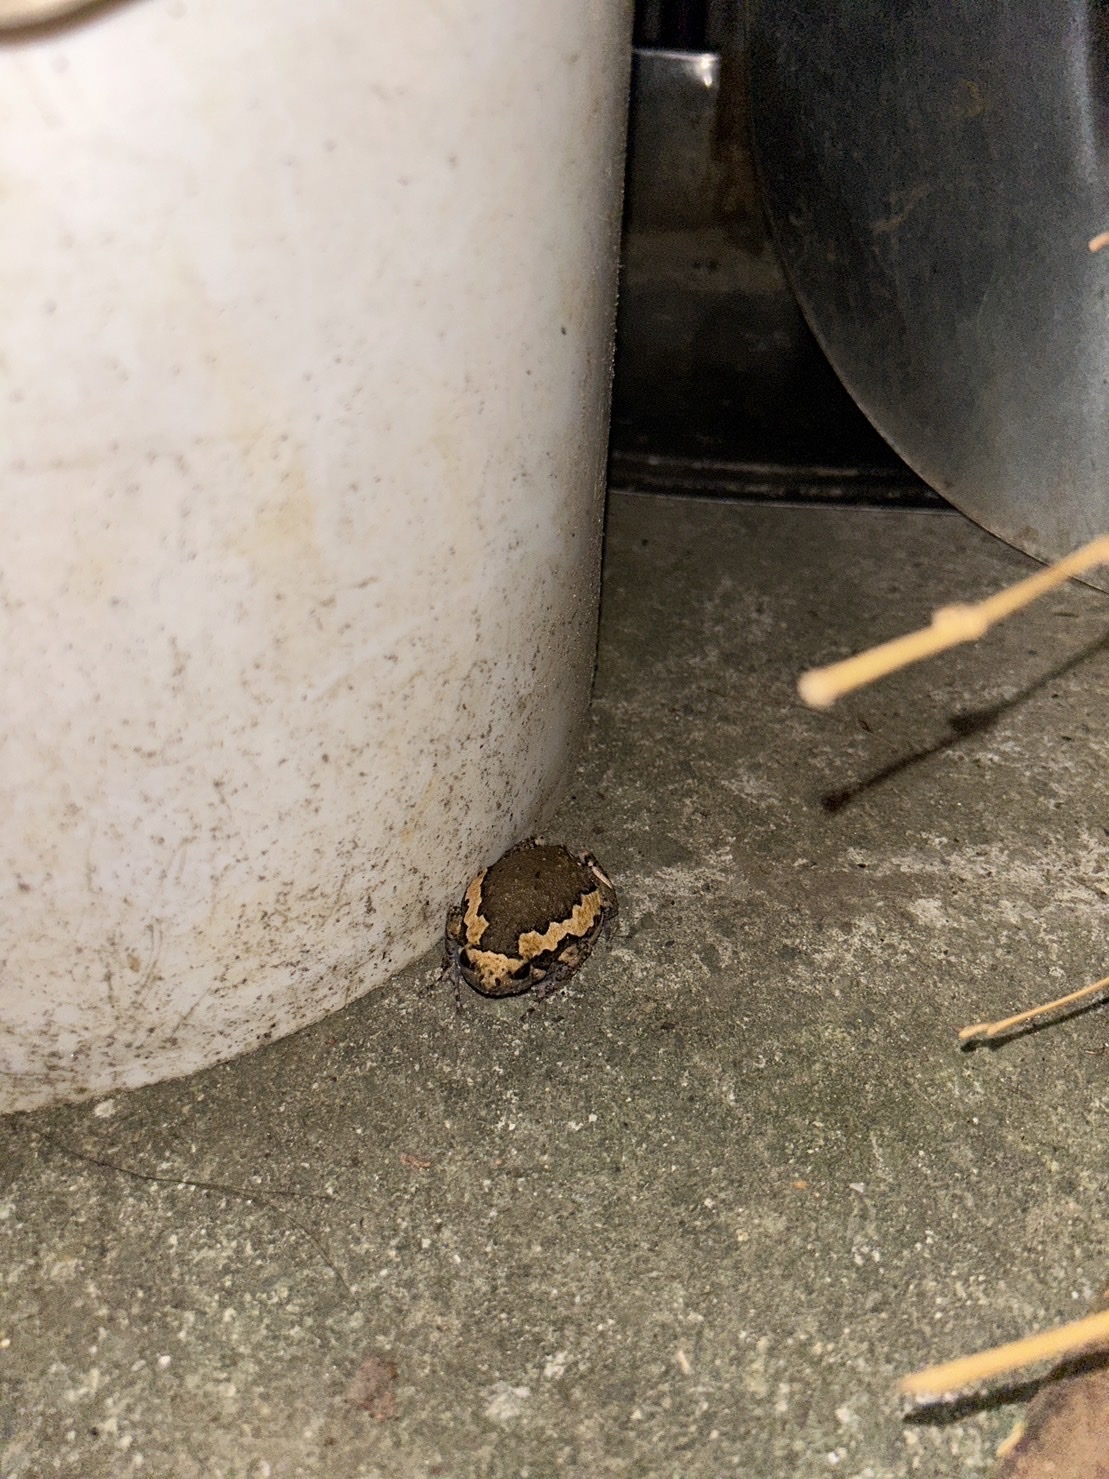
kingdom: Animalia
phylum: Chordata
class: Amphibia
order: Anura
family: Microhylidae
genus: Kaloula
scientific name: Kaloula pulchra
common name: Common,banded bullfrog
